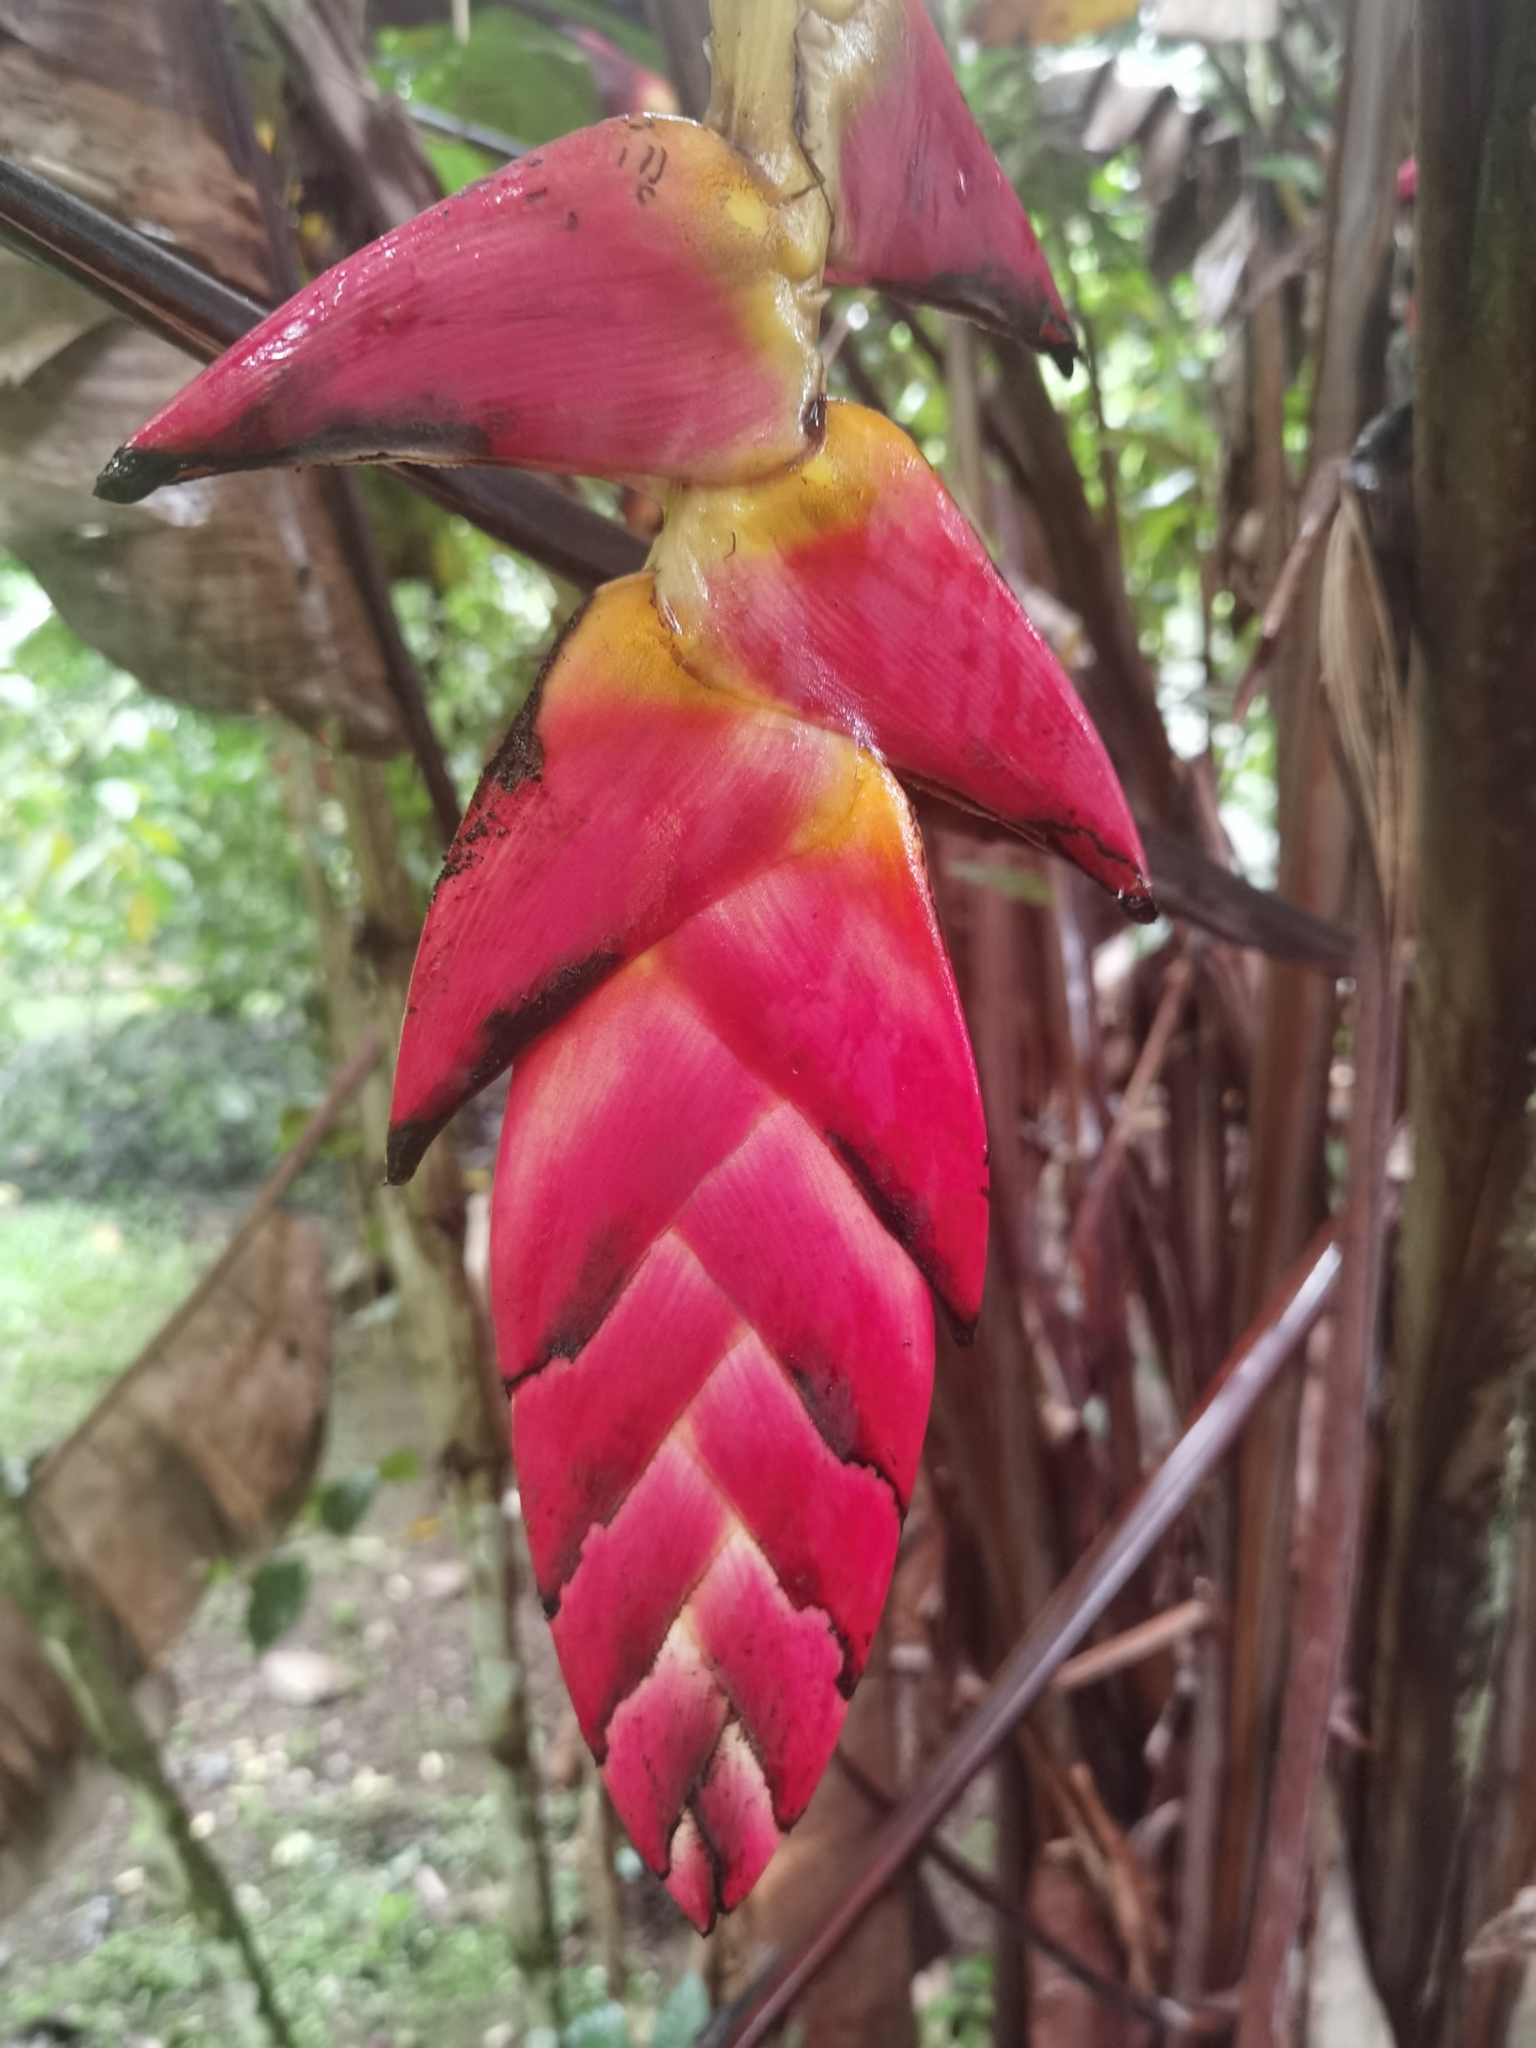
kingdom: Plantae
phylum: Tracheophyta
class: Liliopsida
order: Zingiberales
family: Heliconiaceae
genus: Heliconia
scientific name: Heliconia pogonantha
